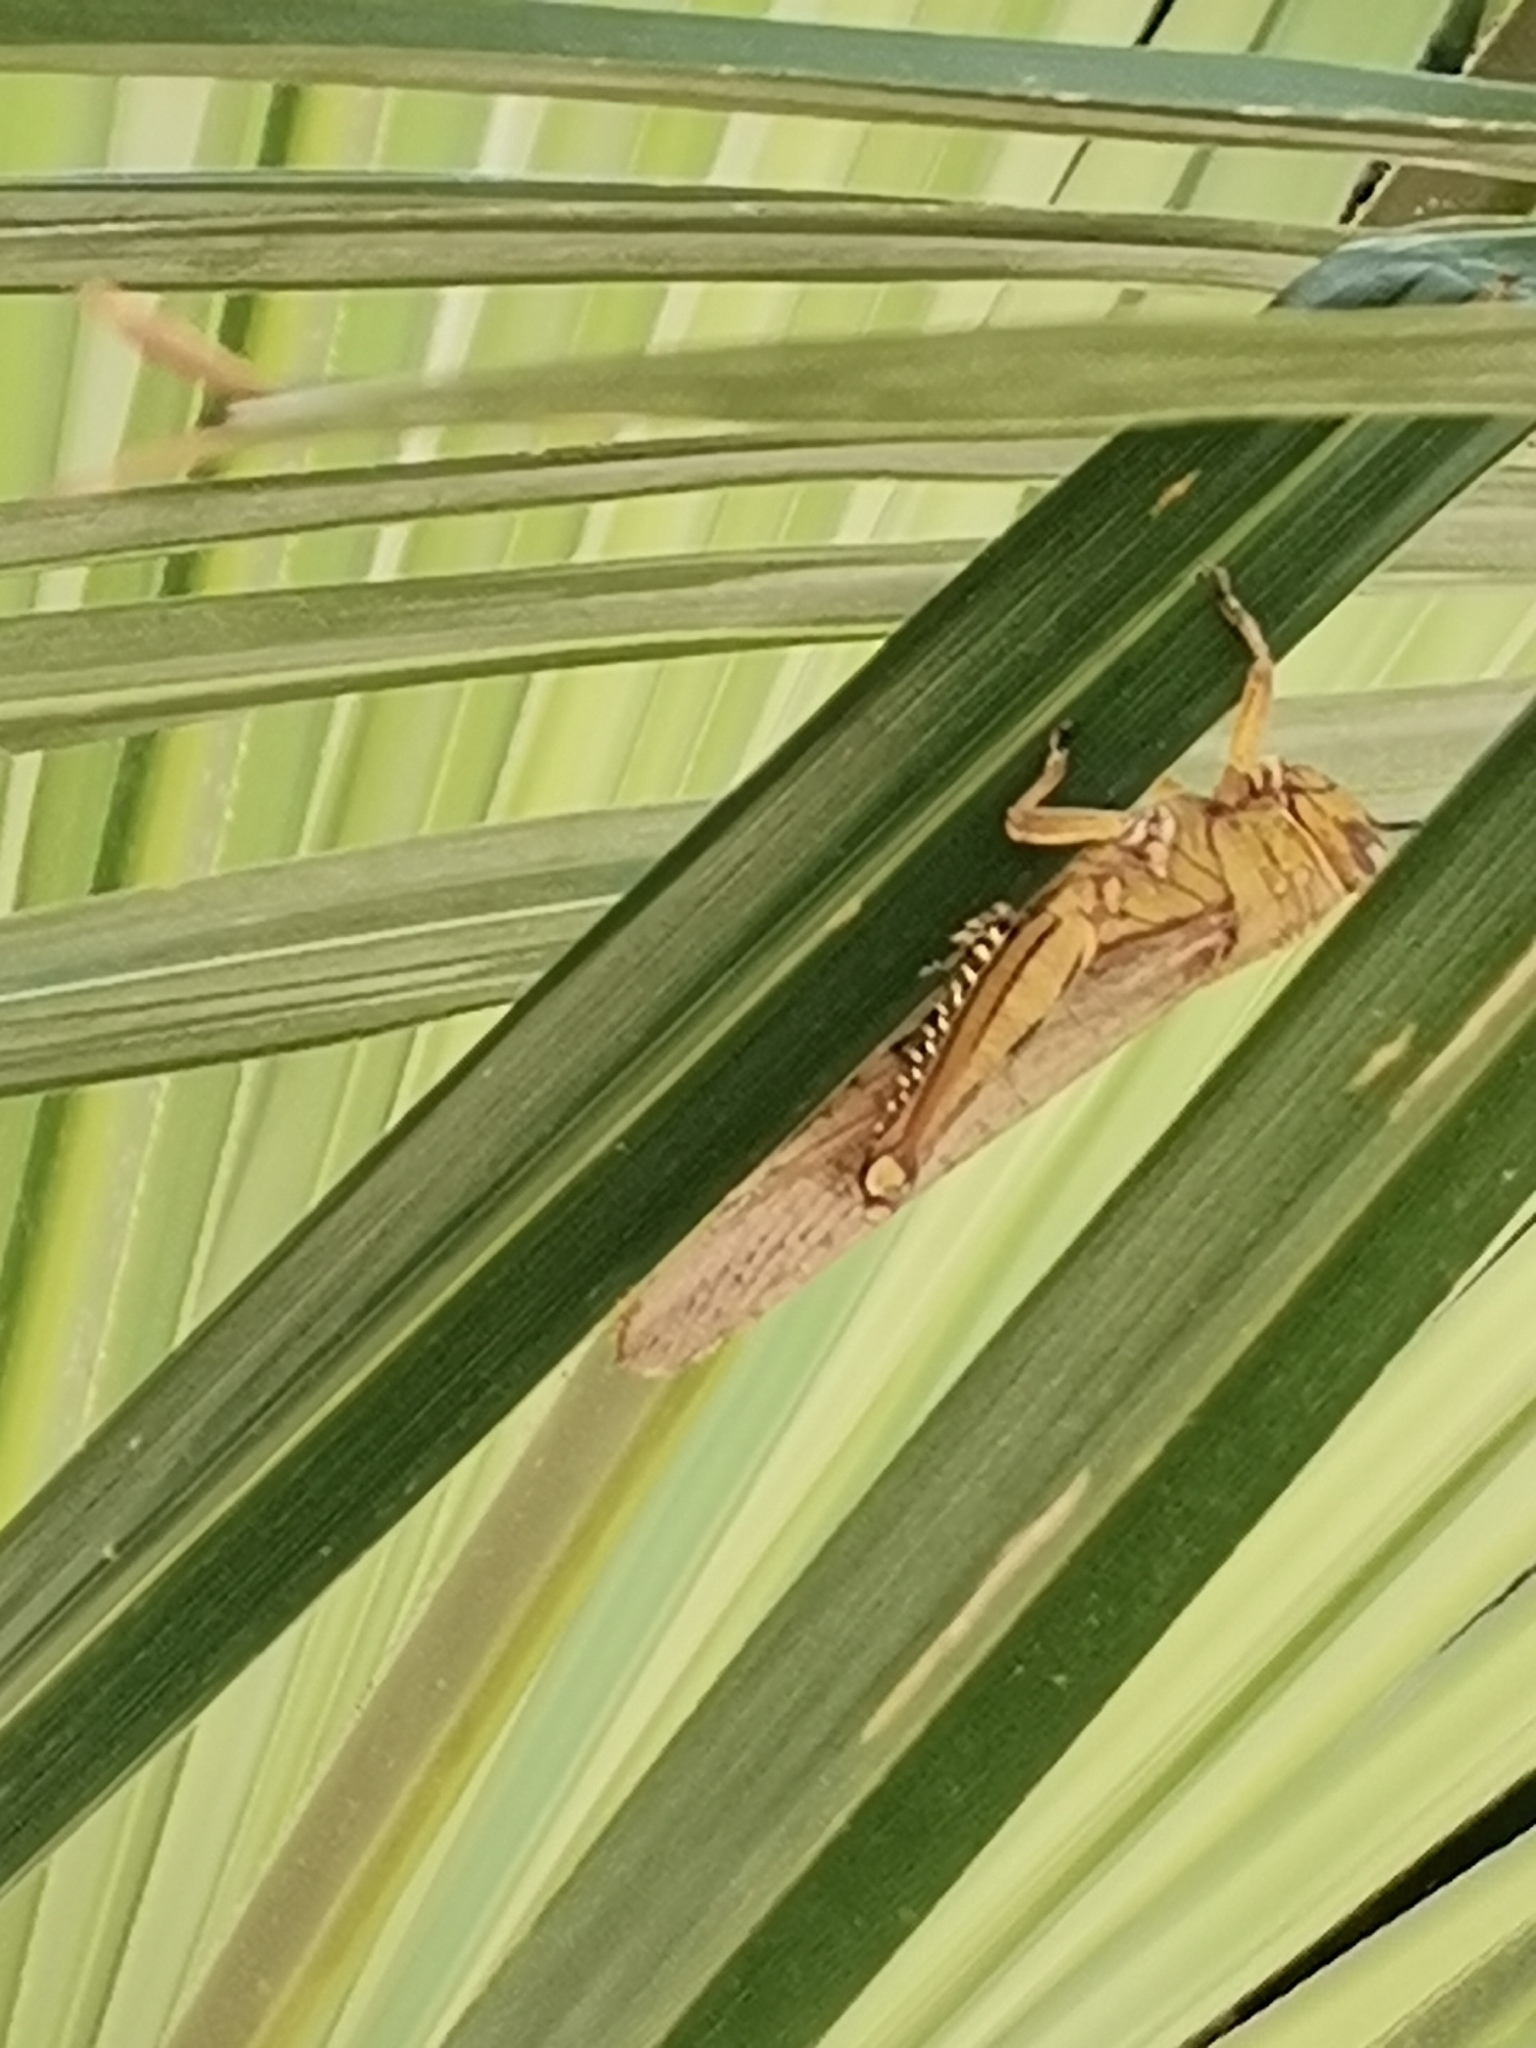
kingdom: Animalia
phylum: Arthropoda
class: Insecta
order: Orthoptera
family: Acrididae
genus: Anacridium
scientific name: Anacridium aegyptium
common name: Egyptian grasshopper
